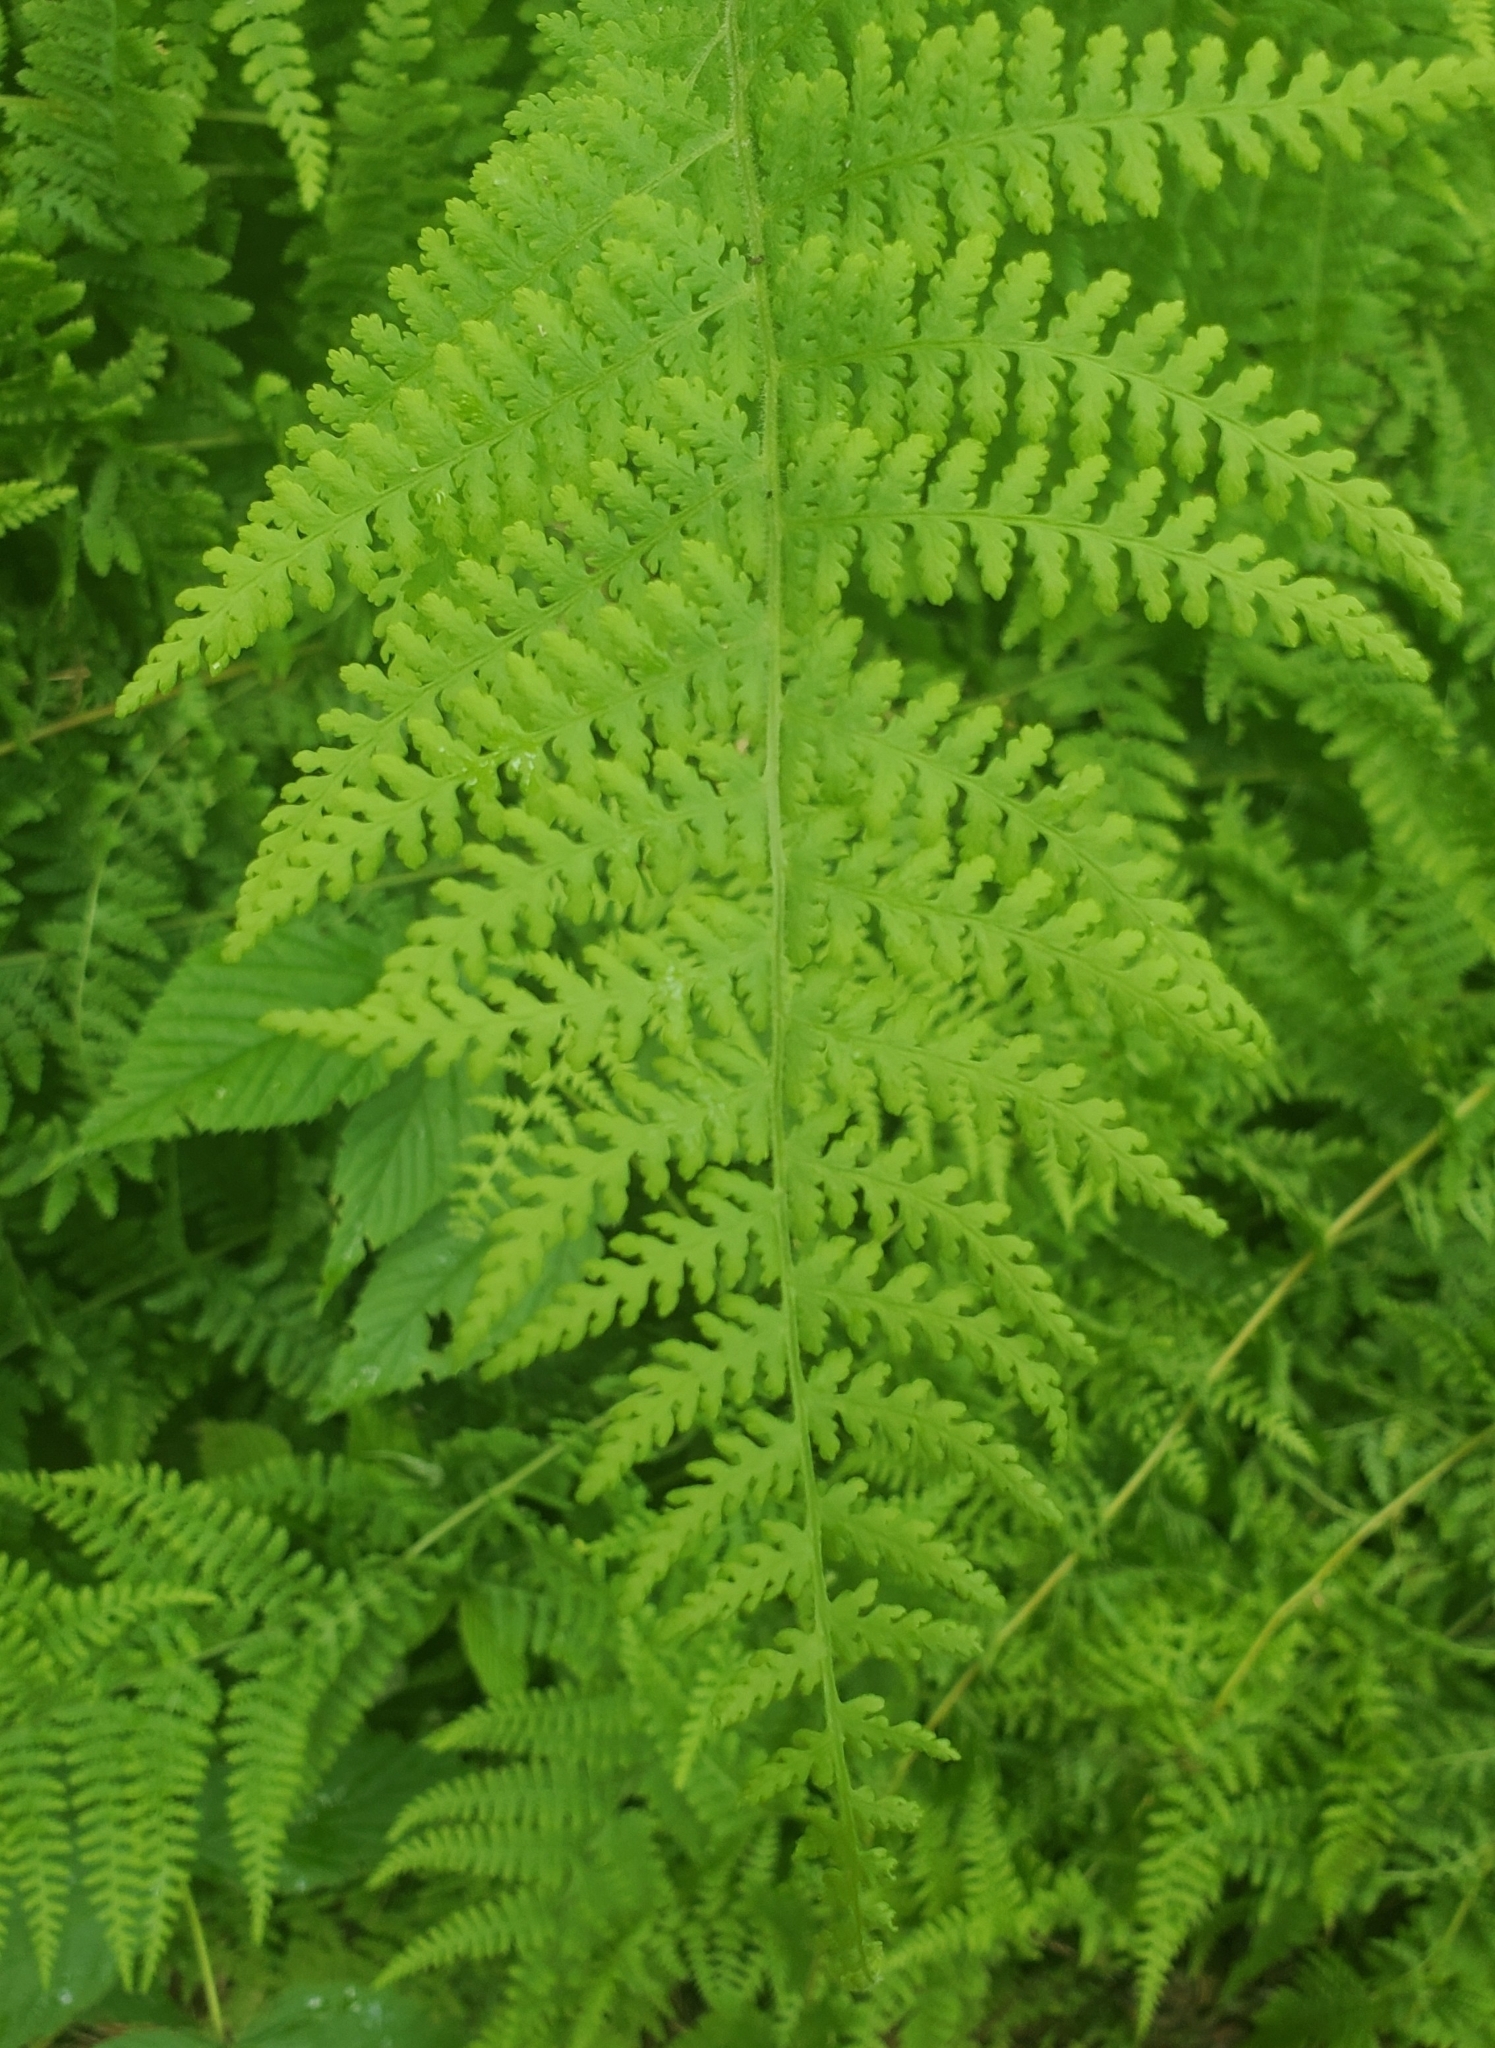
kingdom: Plantae
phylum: Tracheophyta
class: Polypodiopsida
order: Polypodiales
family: Dennstaedtiaceae
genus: Sitobolium
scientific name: Sitobolium punctilobum
